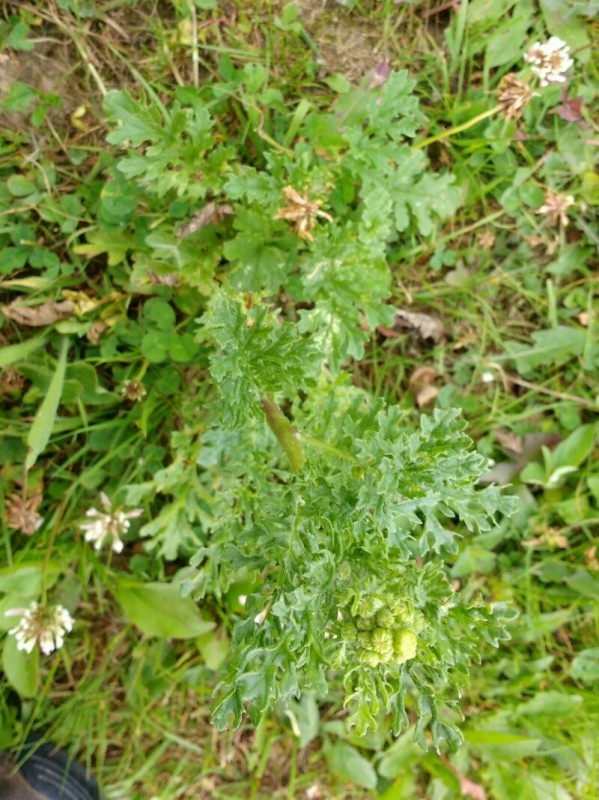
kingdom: Plantae
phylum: Tracheophyta
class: Magnoliopsida
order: Asterales
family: Asteraceae
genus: Jacobaea
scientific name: Jacobaea vulgaris
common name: Stinking willie
